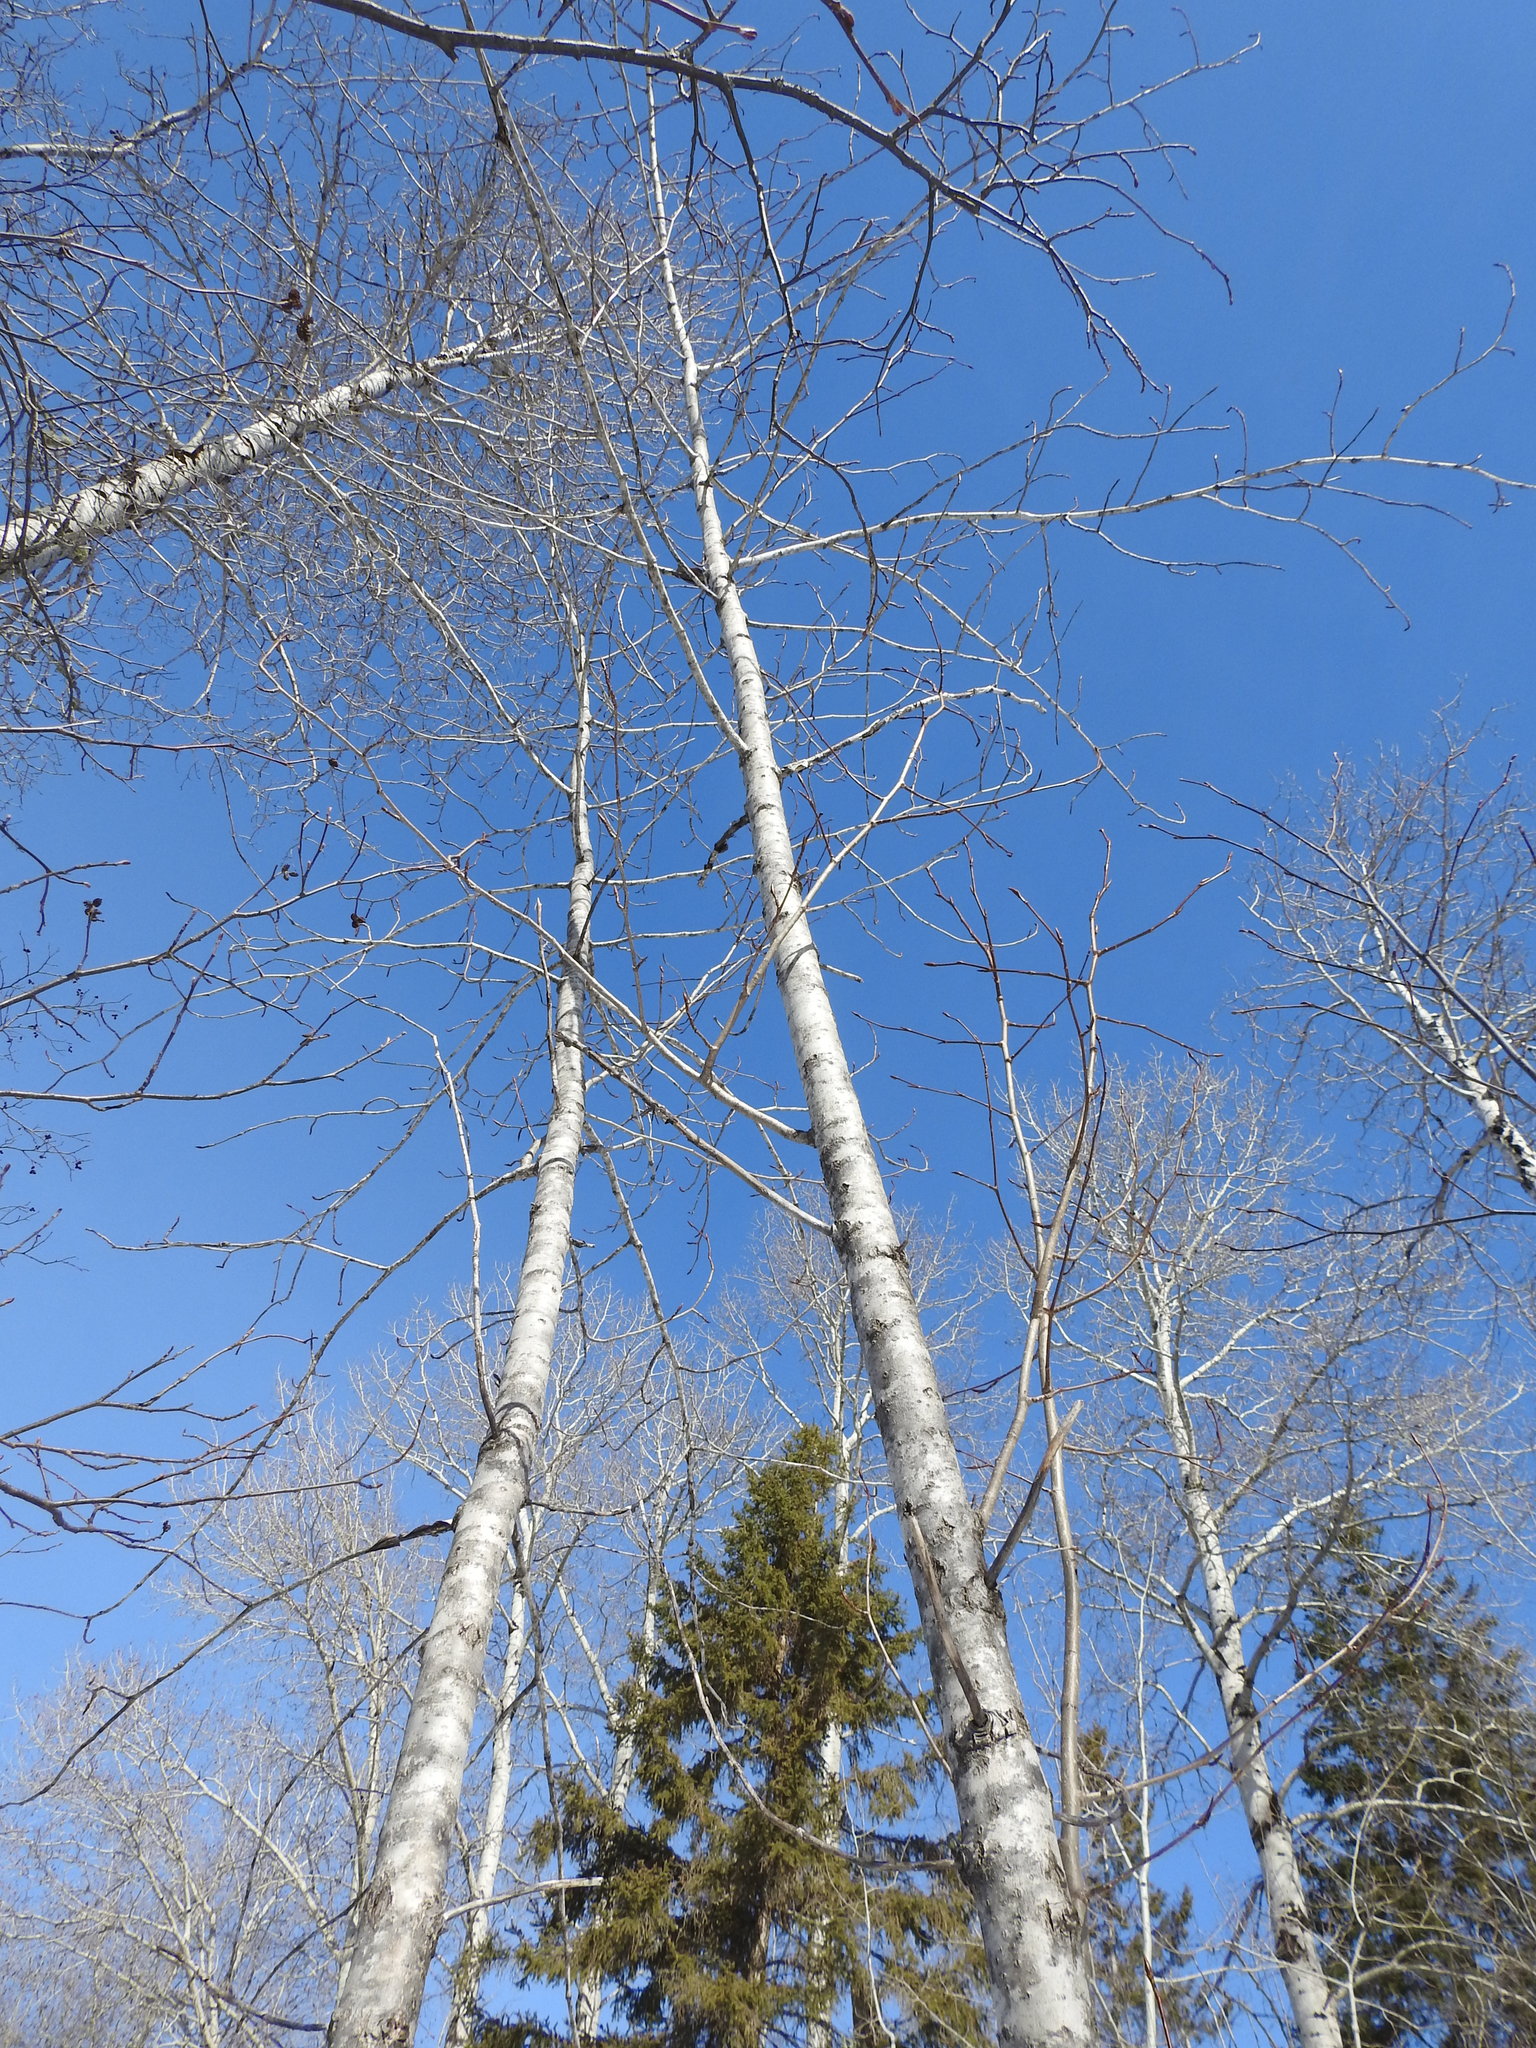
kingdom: Plantae
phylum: Tracheophyta
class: Magnoliopsida
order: Malpighiales
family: Salicaceae
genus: Populus
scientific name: Populus balsamifera
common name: Balsam poplar
